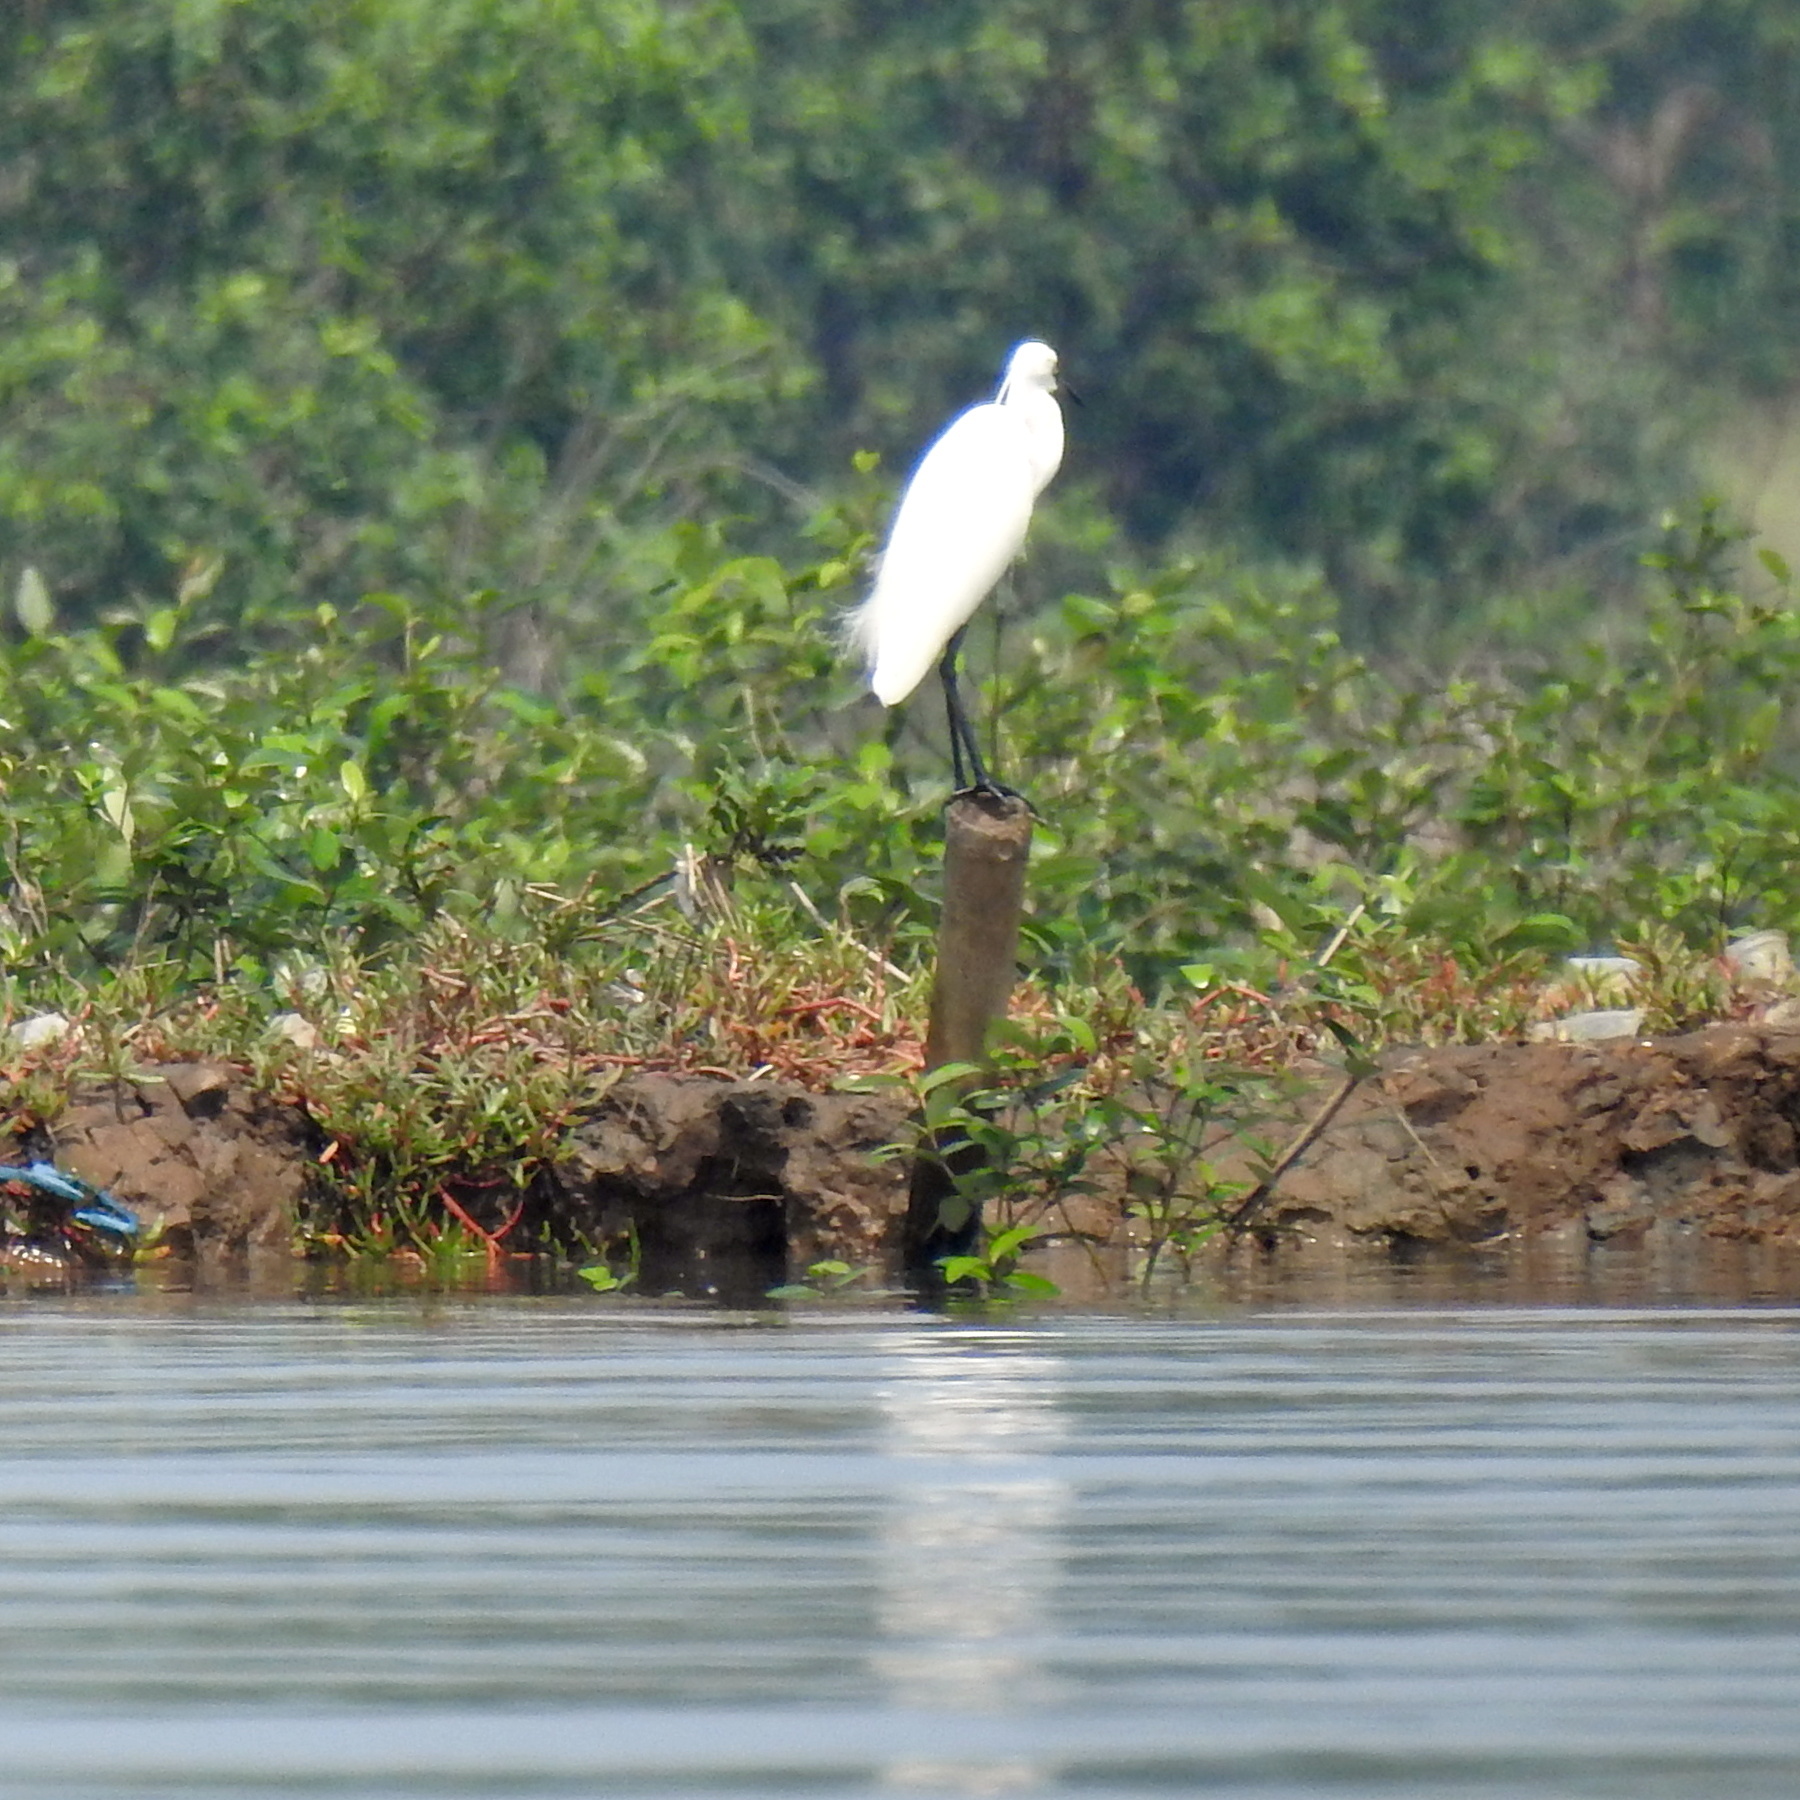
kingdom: Animalia
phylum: Chordata
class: Aves
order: Pelecaniformes
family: Ardeidae
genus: Egretta
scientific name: Egretta garzetta
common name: Little egret
